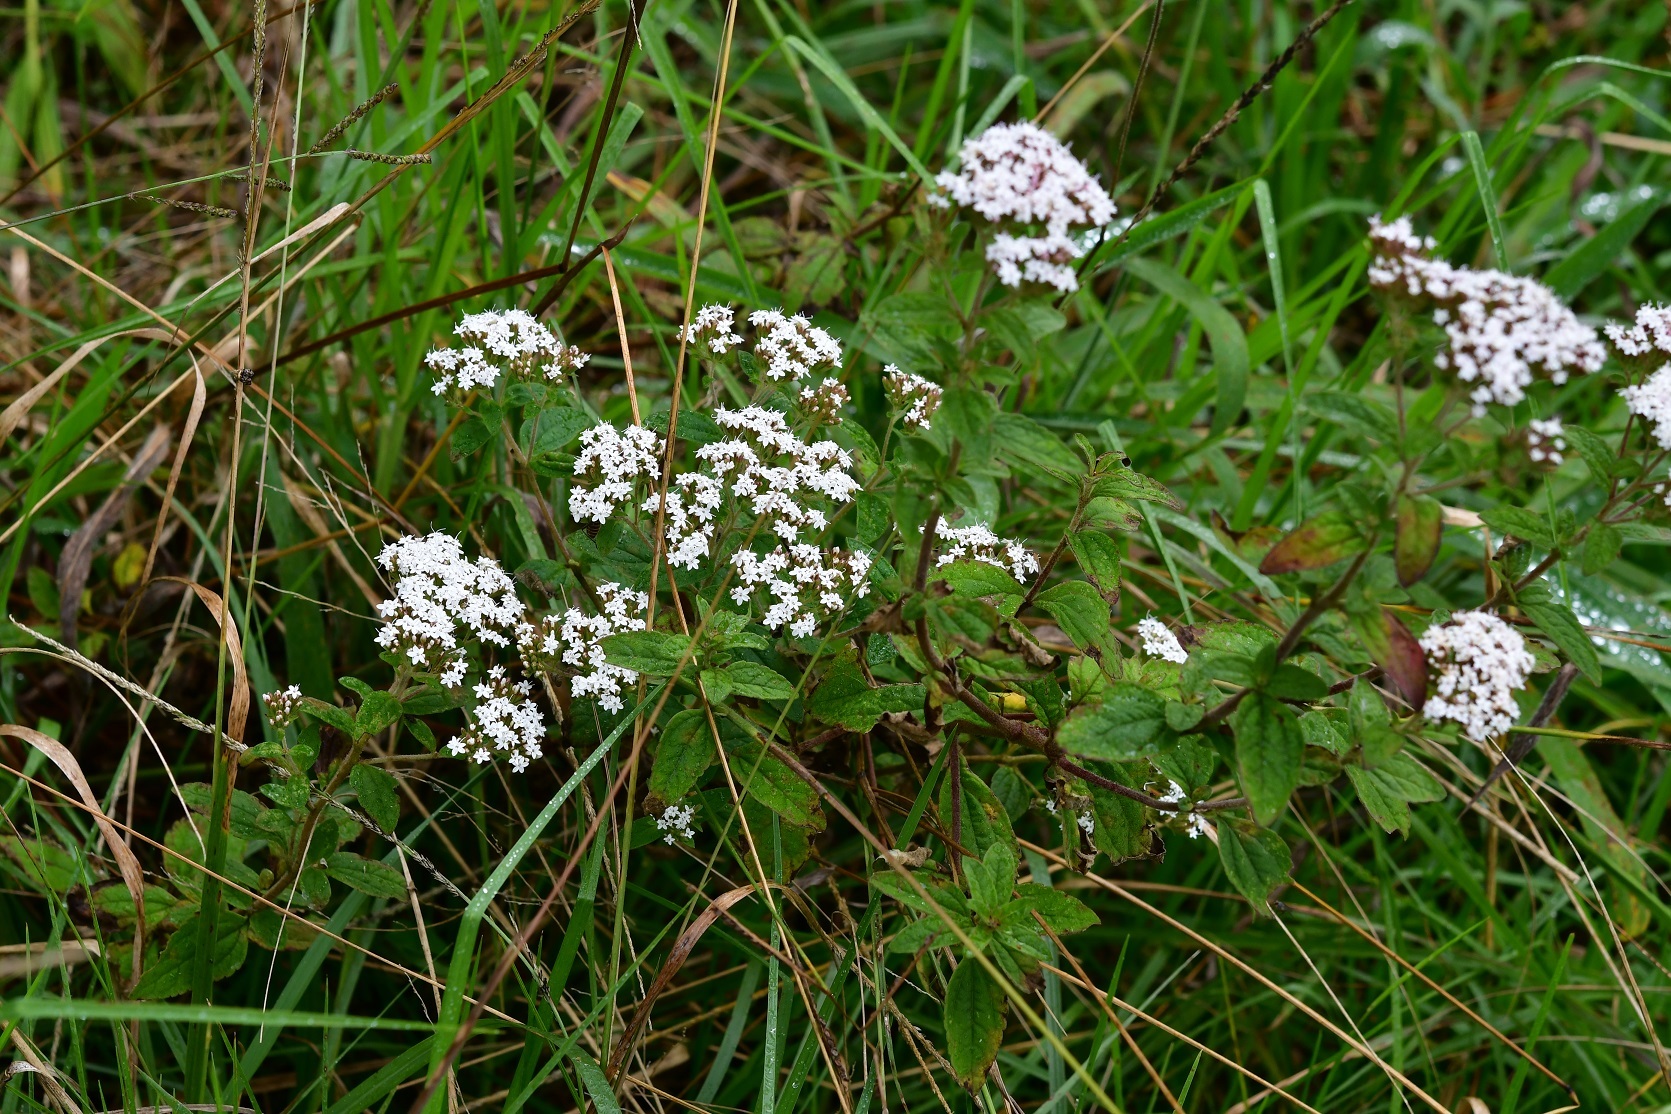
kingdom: Plantae
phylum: Tracheophyta
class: Magnoliopsida
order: Asterales
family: Asteraceae
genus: Stevia
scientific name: Stevia tomentosa
